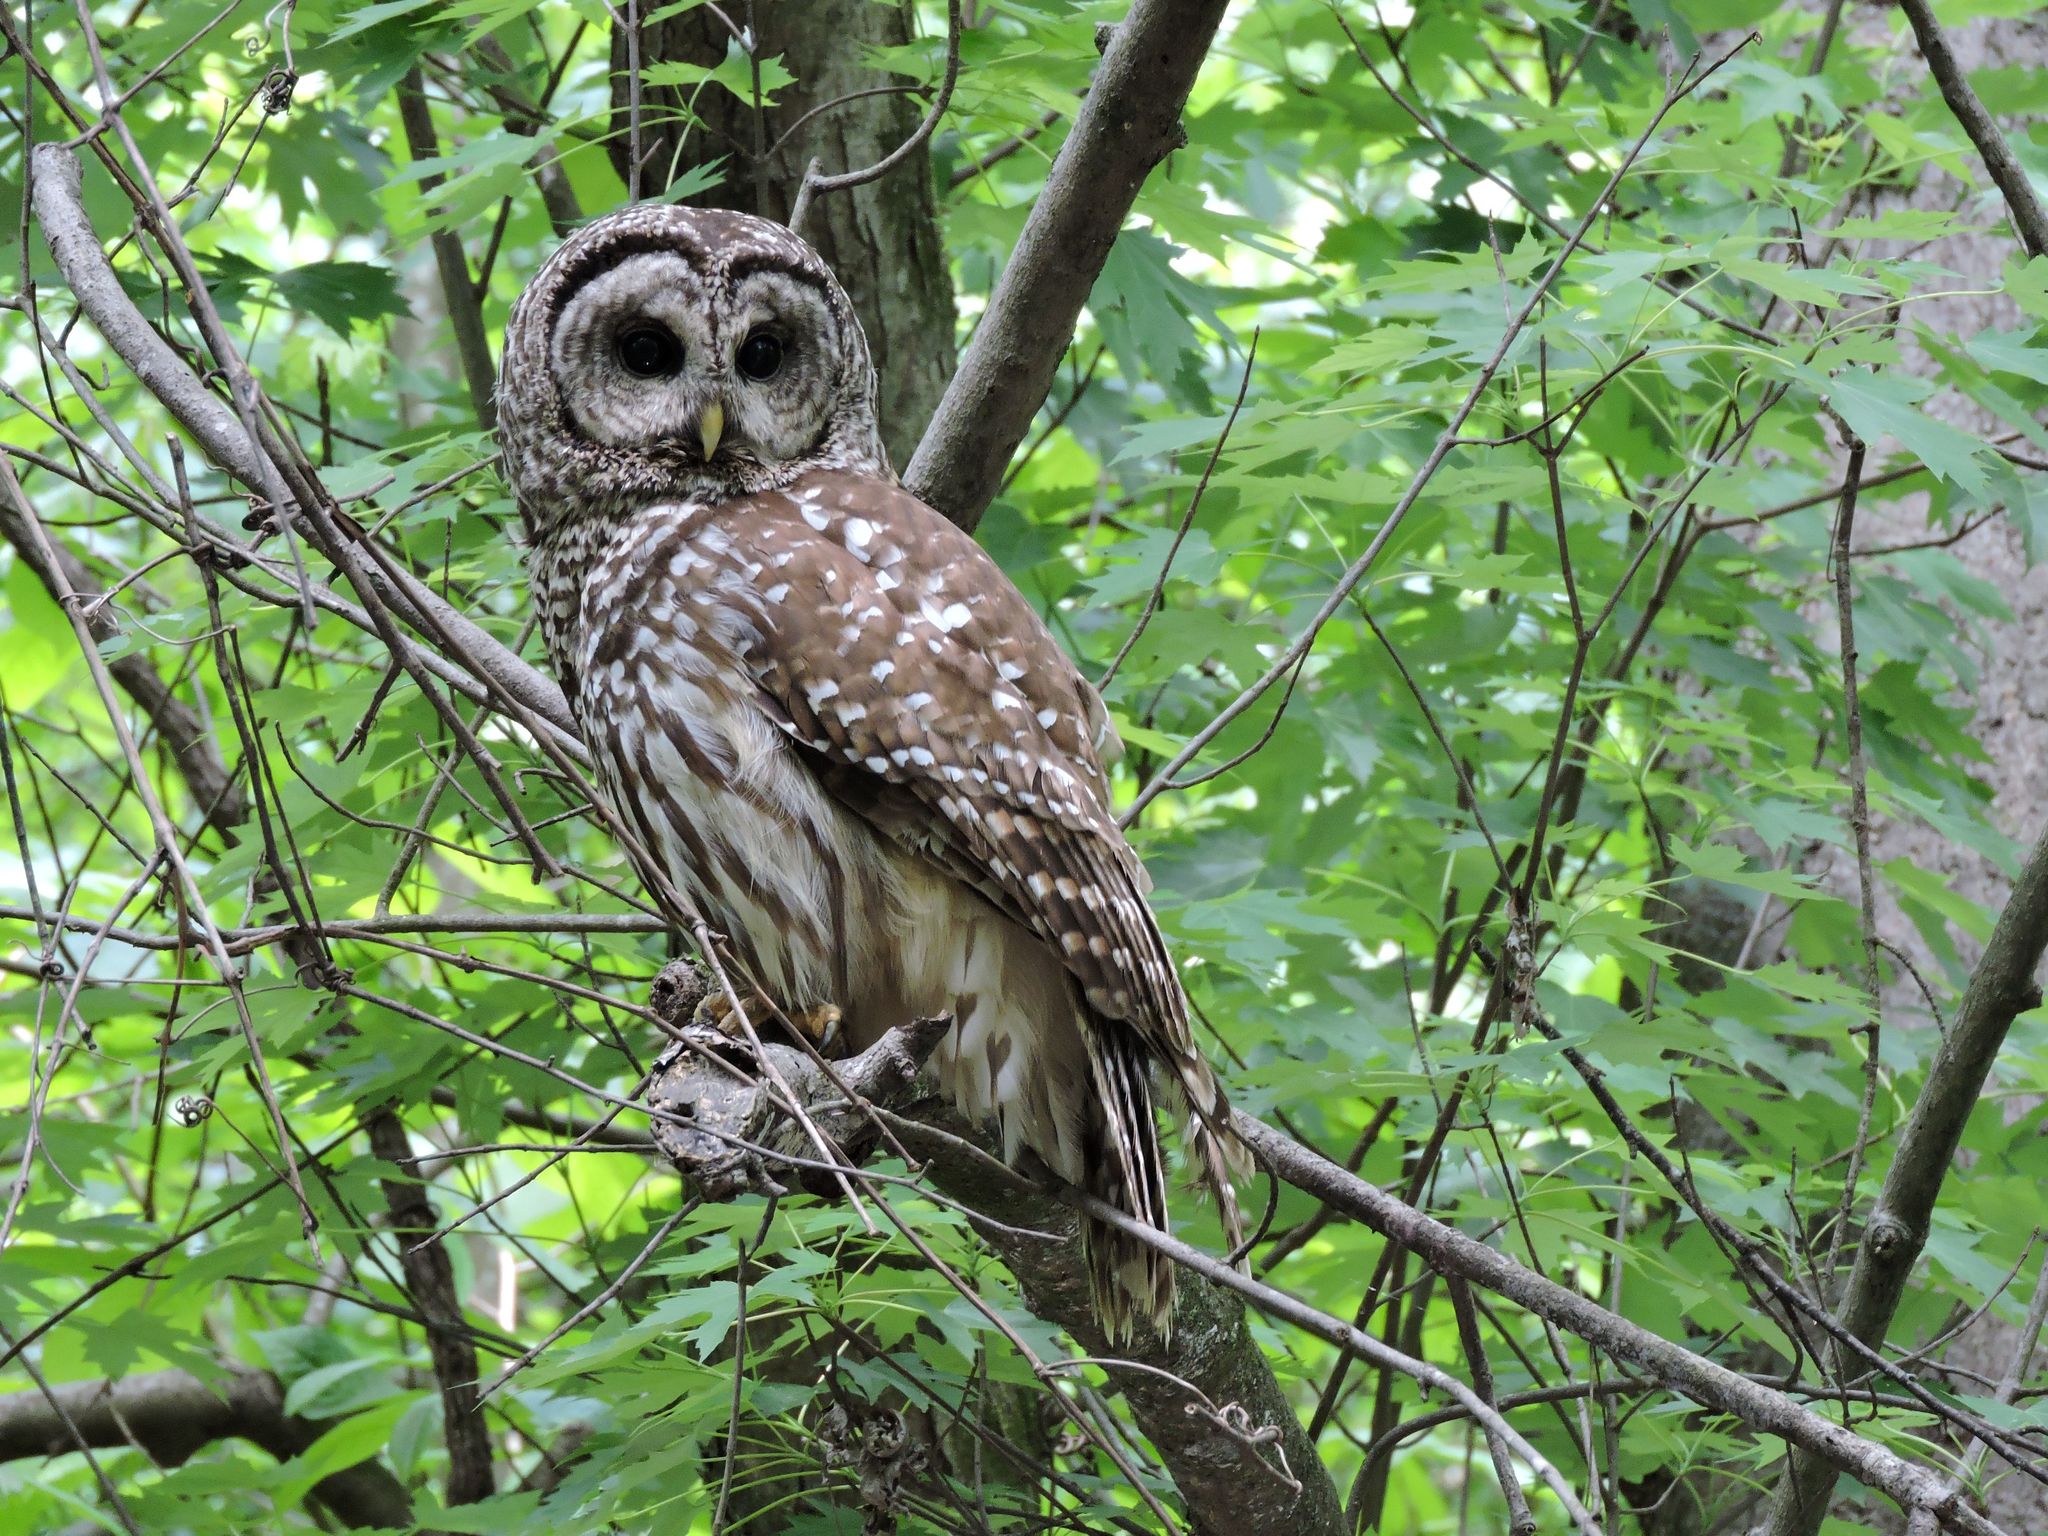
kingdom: Animalia
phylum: Chordata
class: Aves
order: Strigiformes
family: Strigidae
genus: Strix
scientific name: Strix varia
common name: Barred owl
